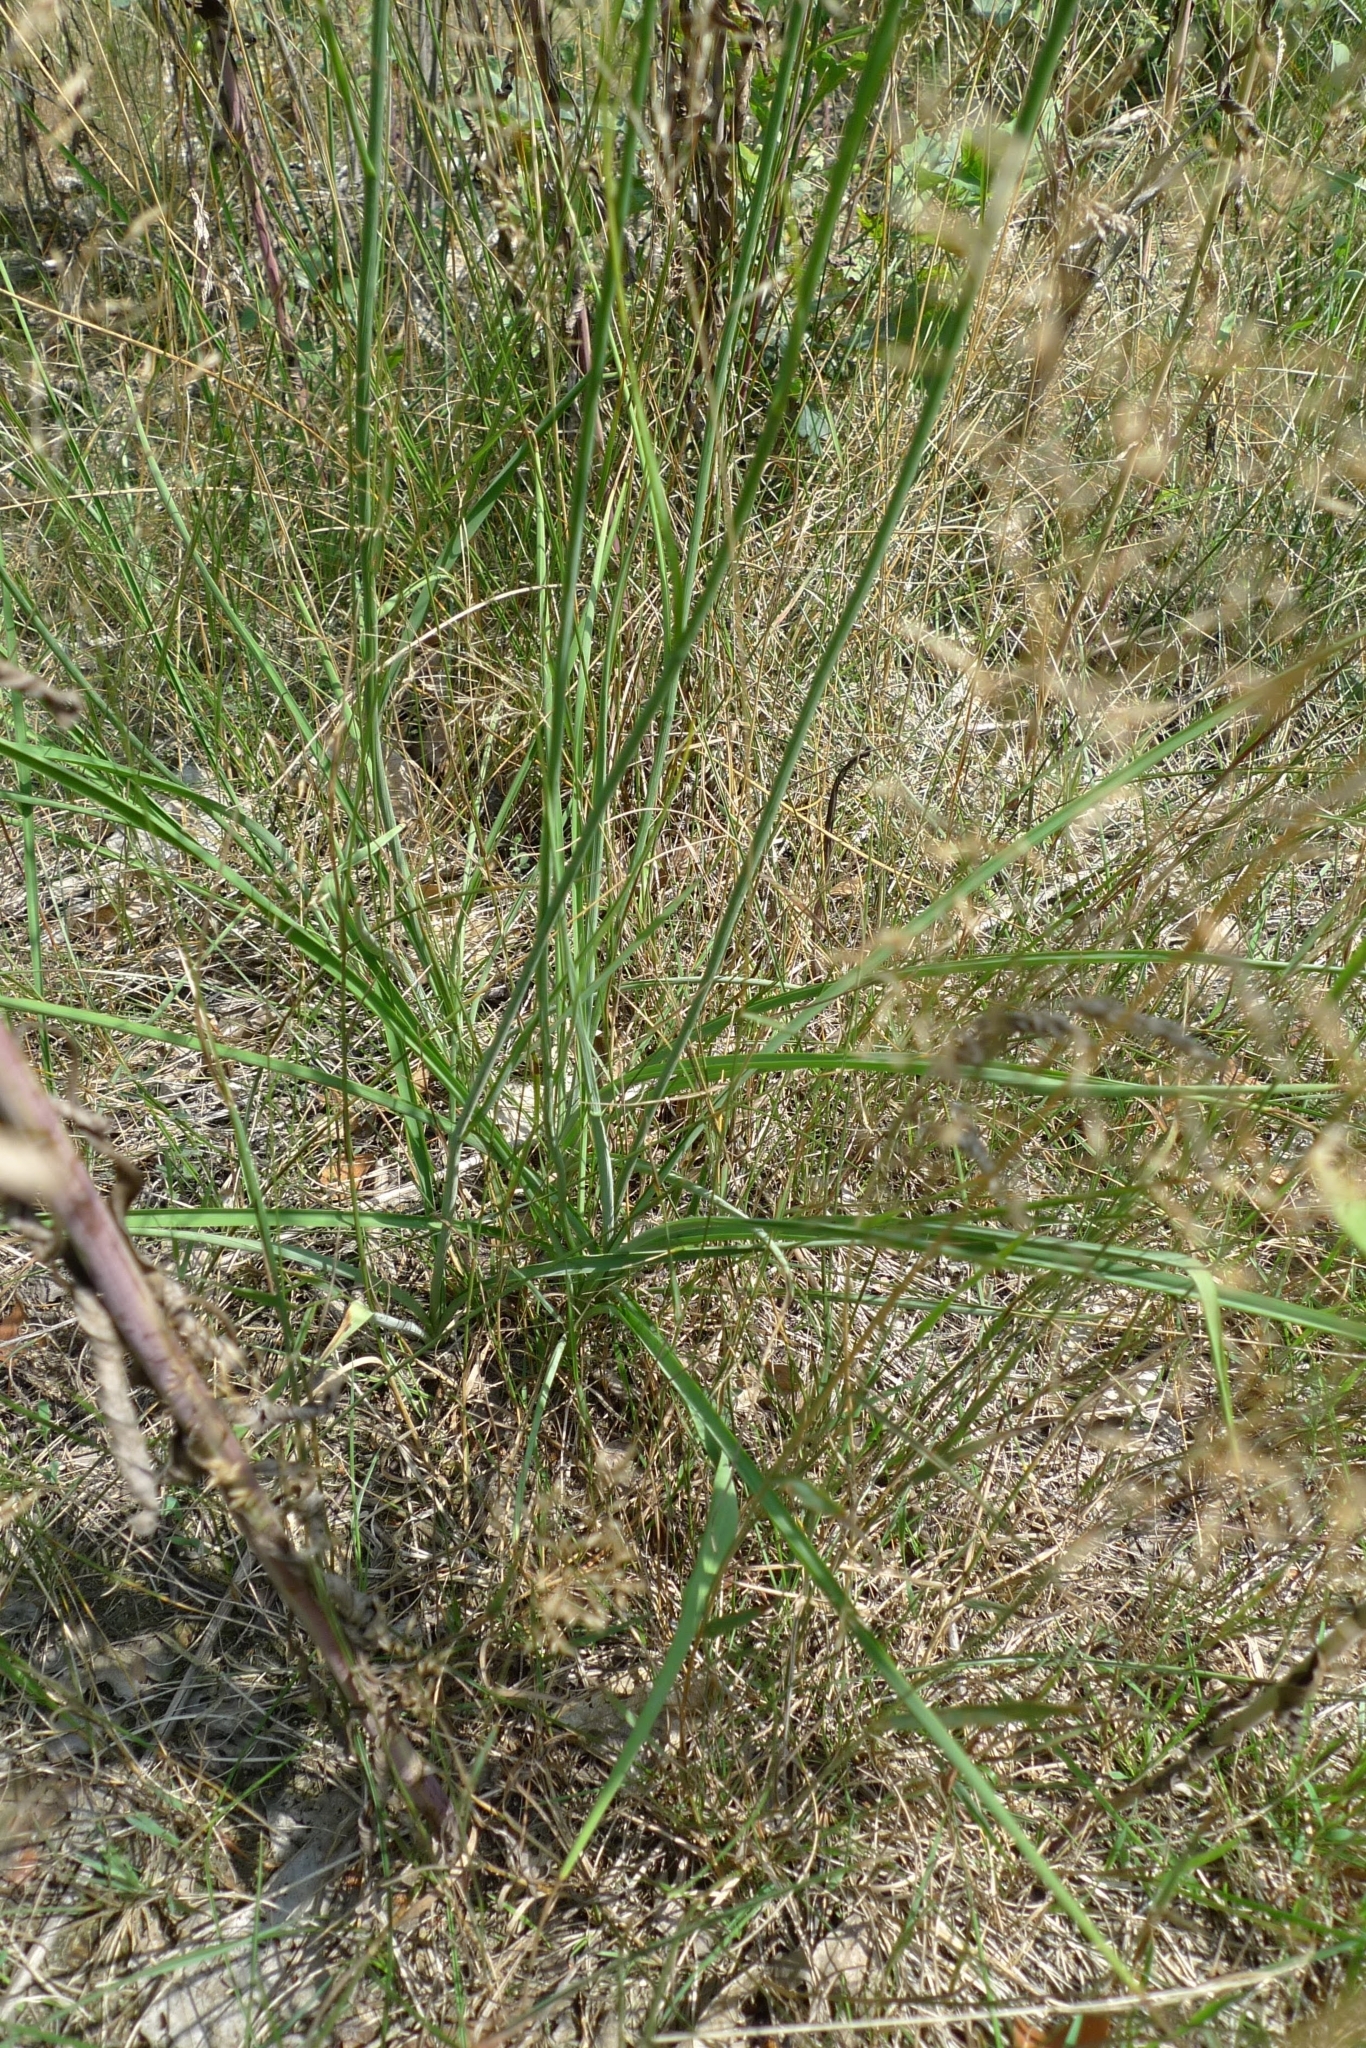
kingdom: Plantae
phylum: Tracheophyta
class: Liliopsida
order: Asparagales
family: Asparagaceae
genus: Anthericum
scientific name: Anthericum ramosum
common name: Branched st. bernard's-lily
